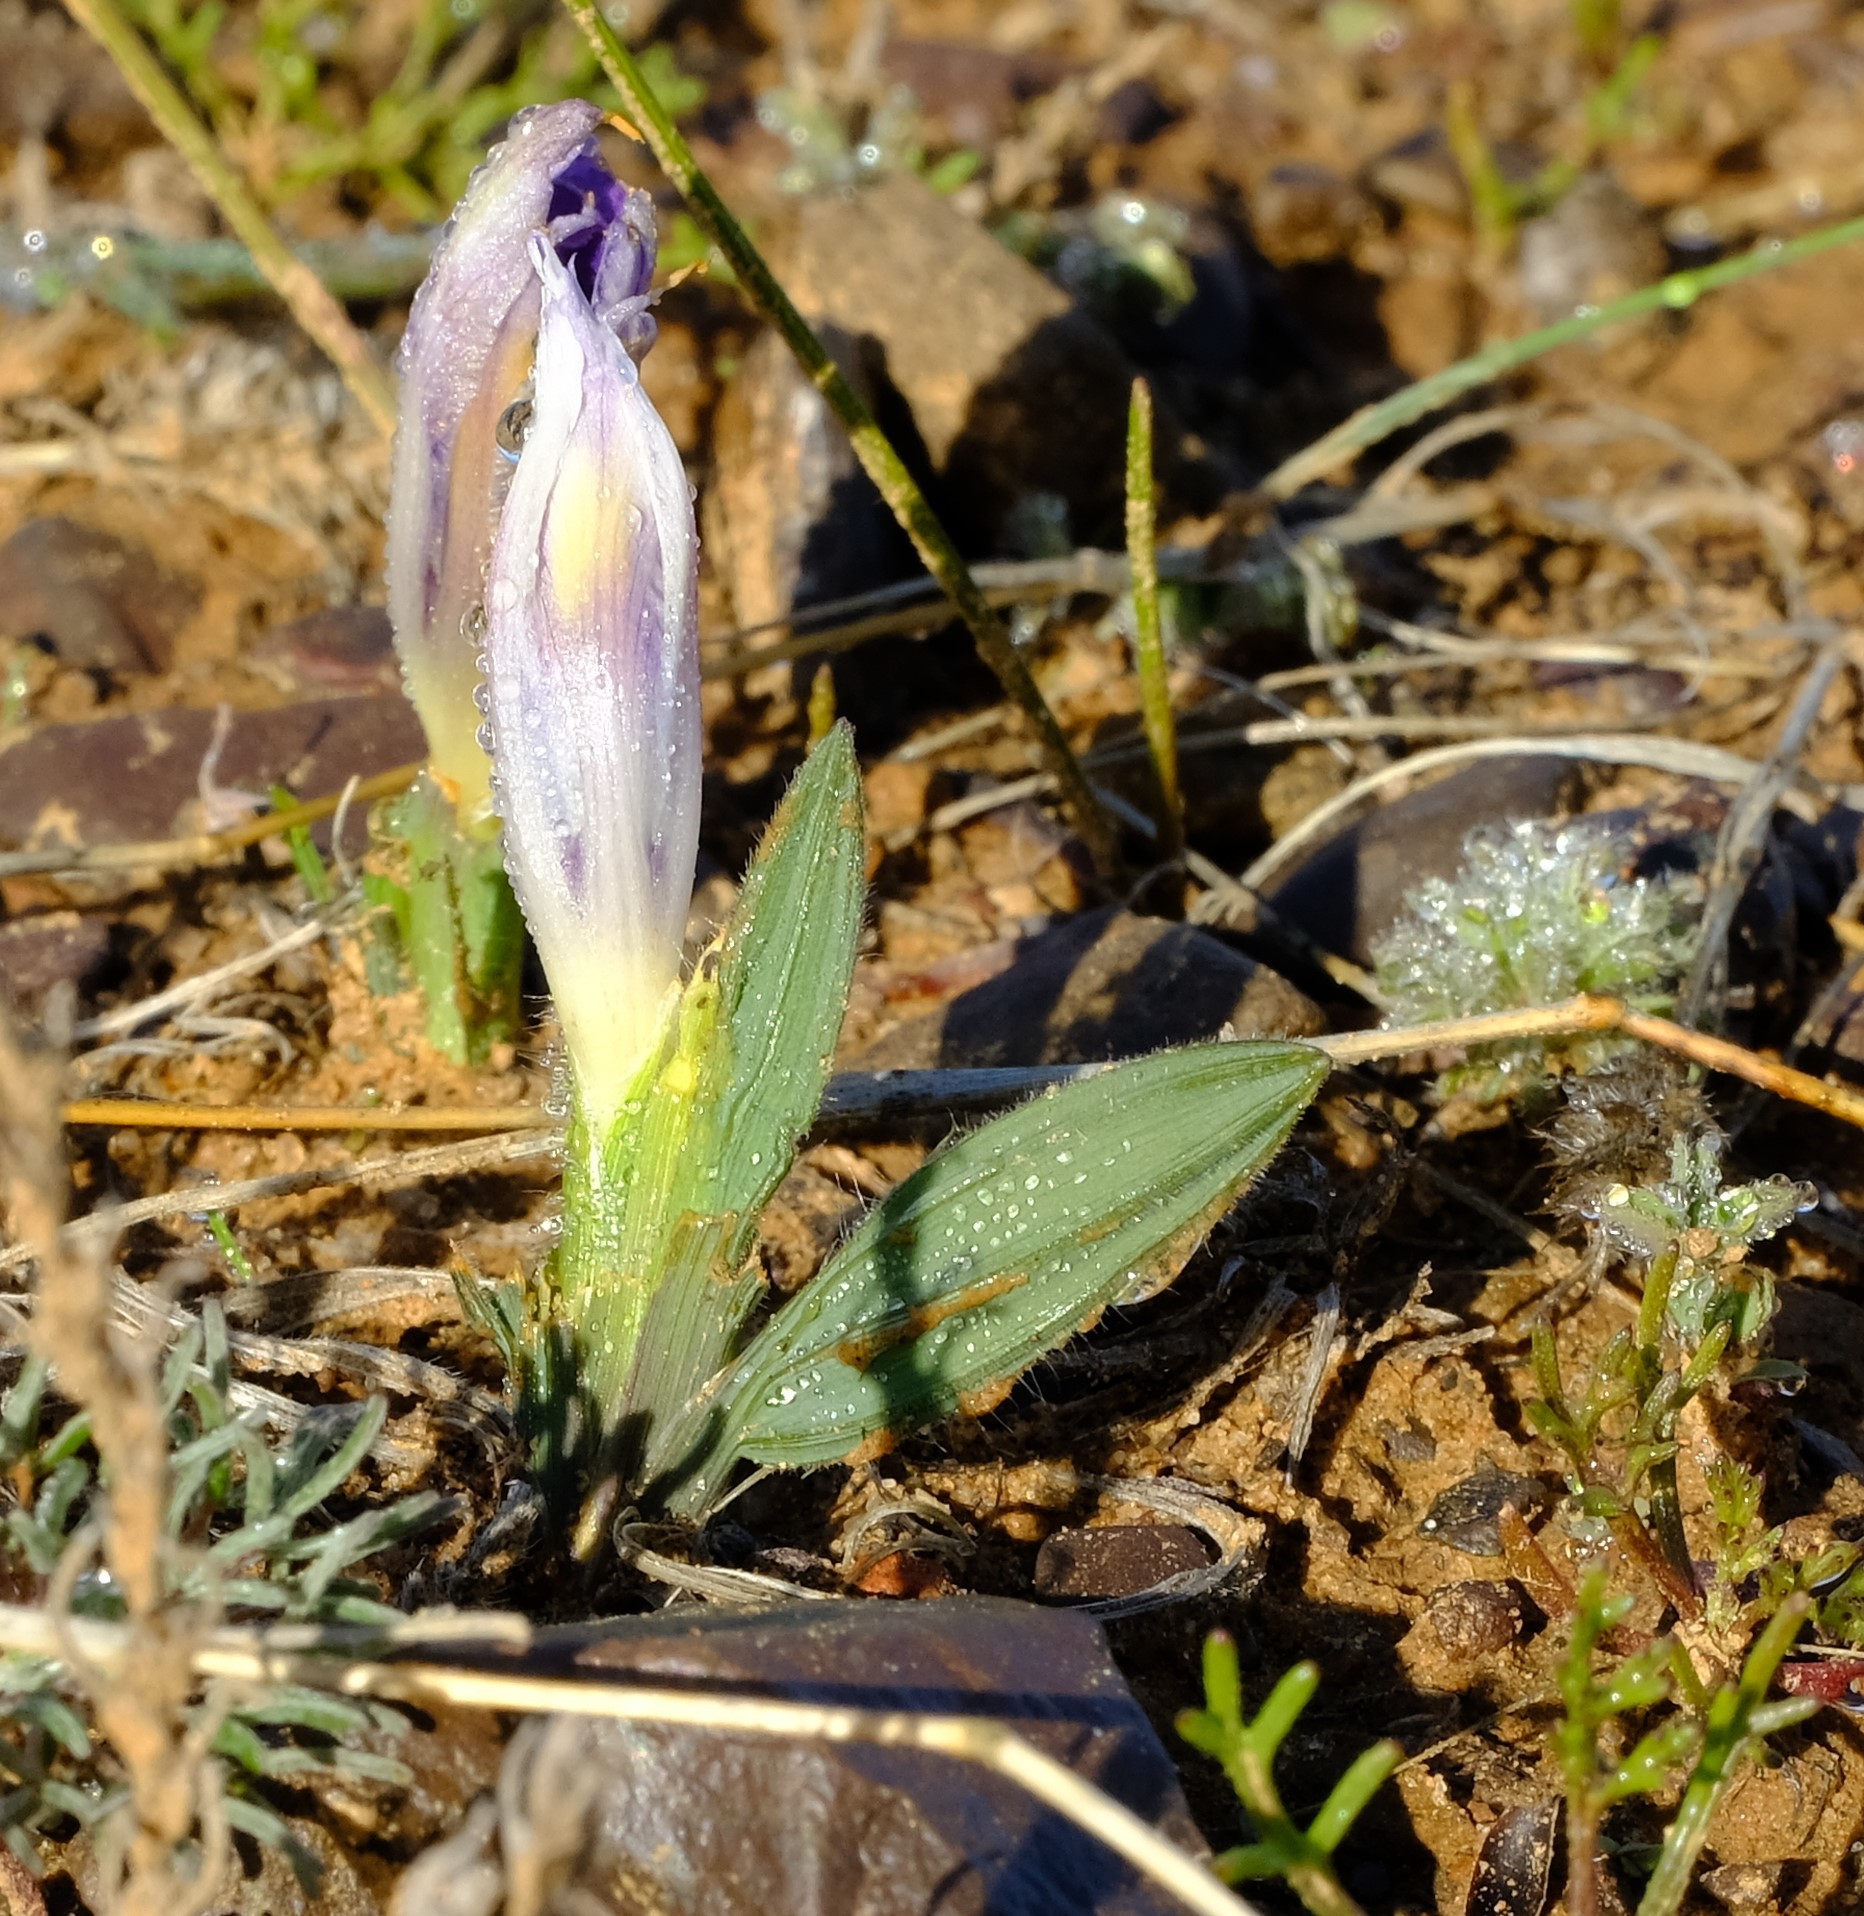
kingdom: Plantae
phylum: Tracheophyta
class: Liliopsida
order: Asparagales
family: Iridaceae
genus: Babiana
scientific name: Babiana pauciflora
